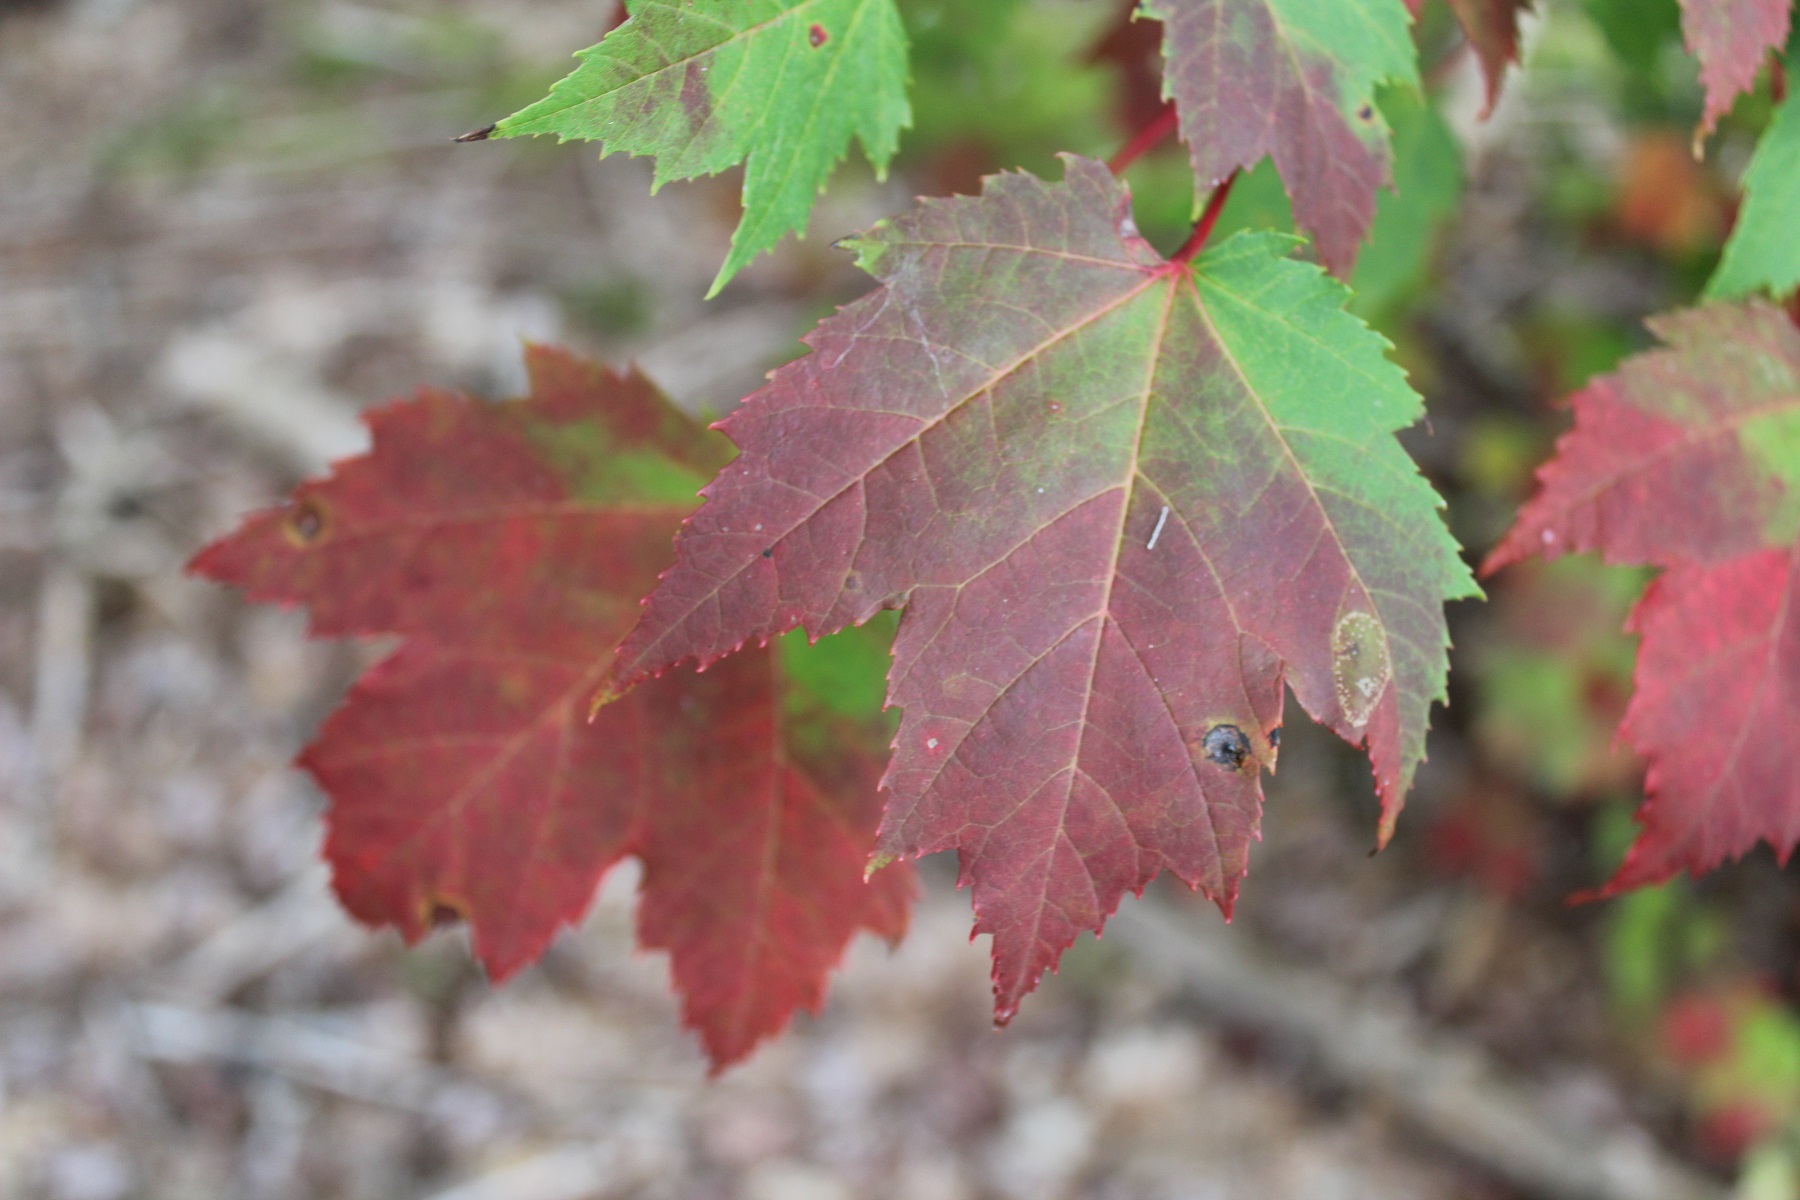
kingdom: Plantae
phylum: Tracheophyta
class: Magnoliopsida
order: Sapindales
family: Sapindaceae
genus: Acer
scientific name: Acer rubrum
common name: Red maple
